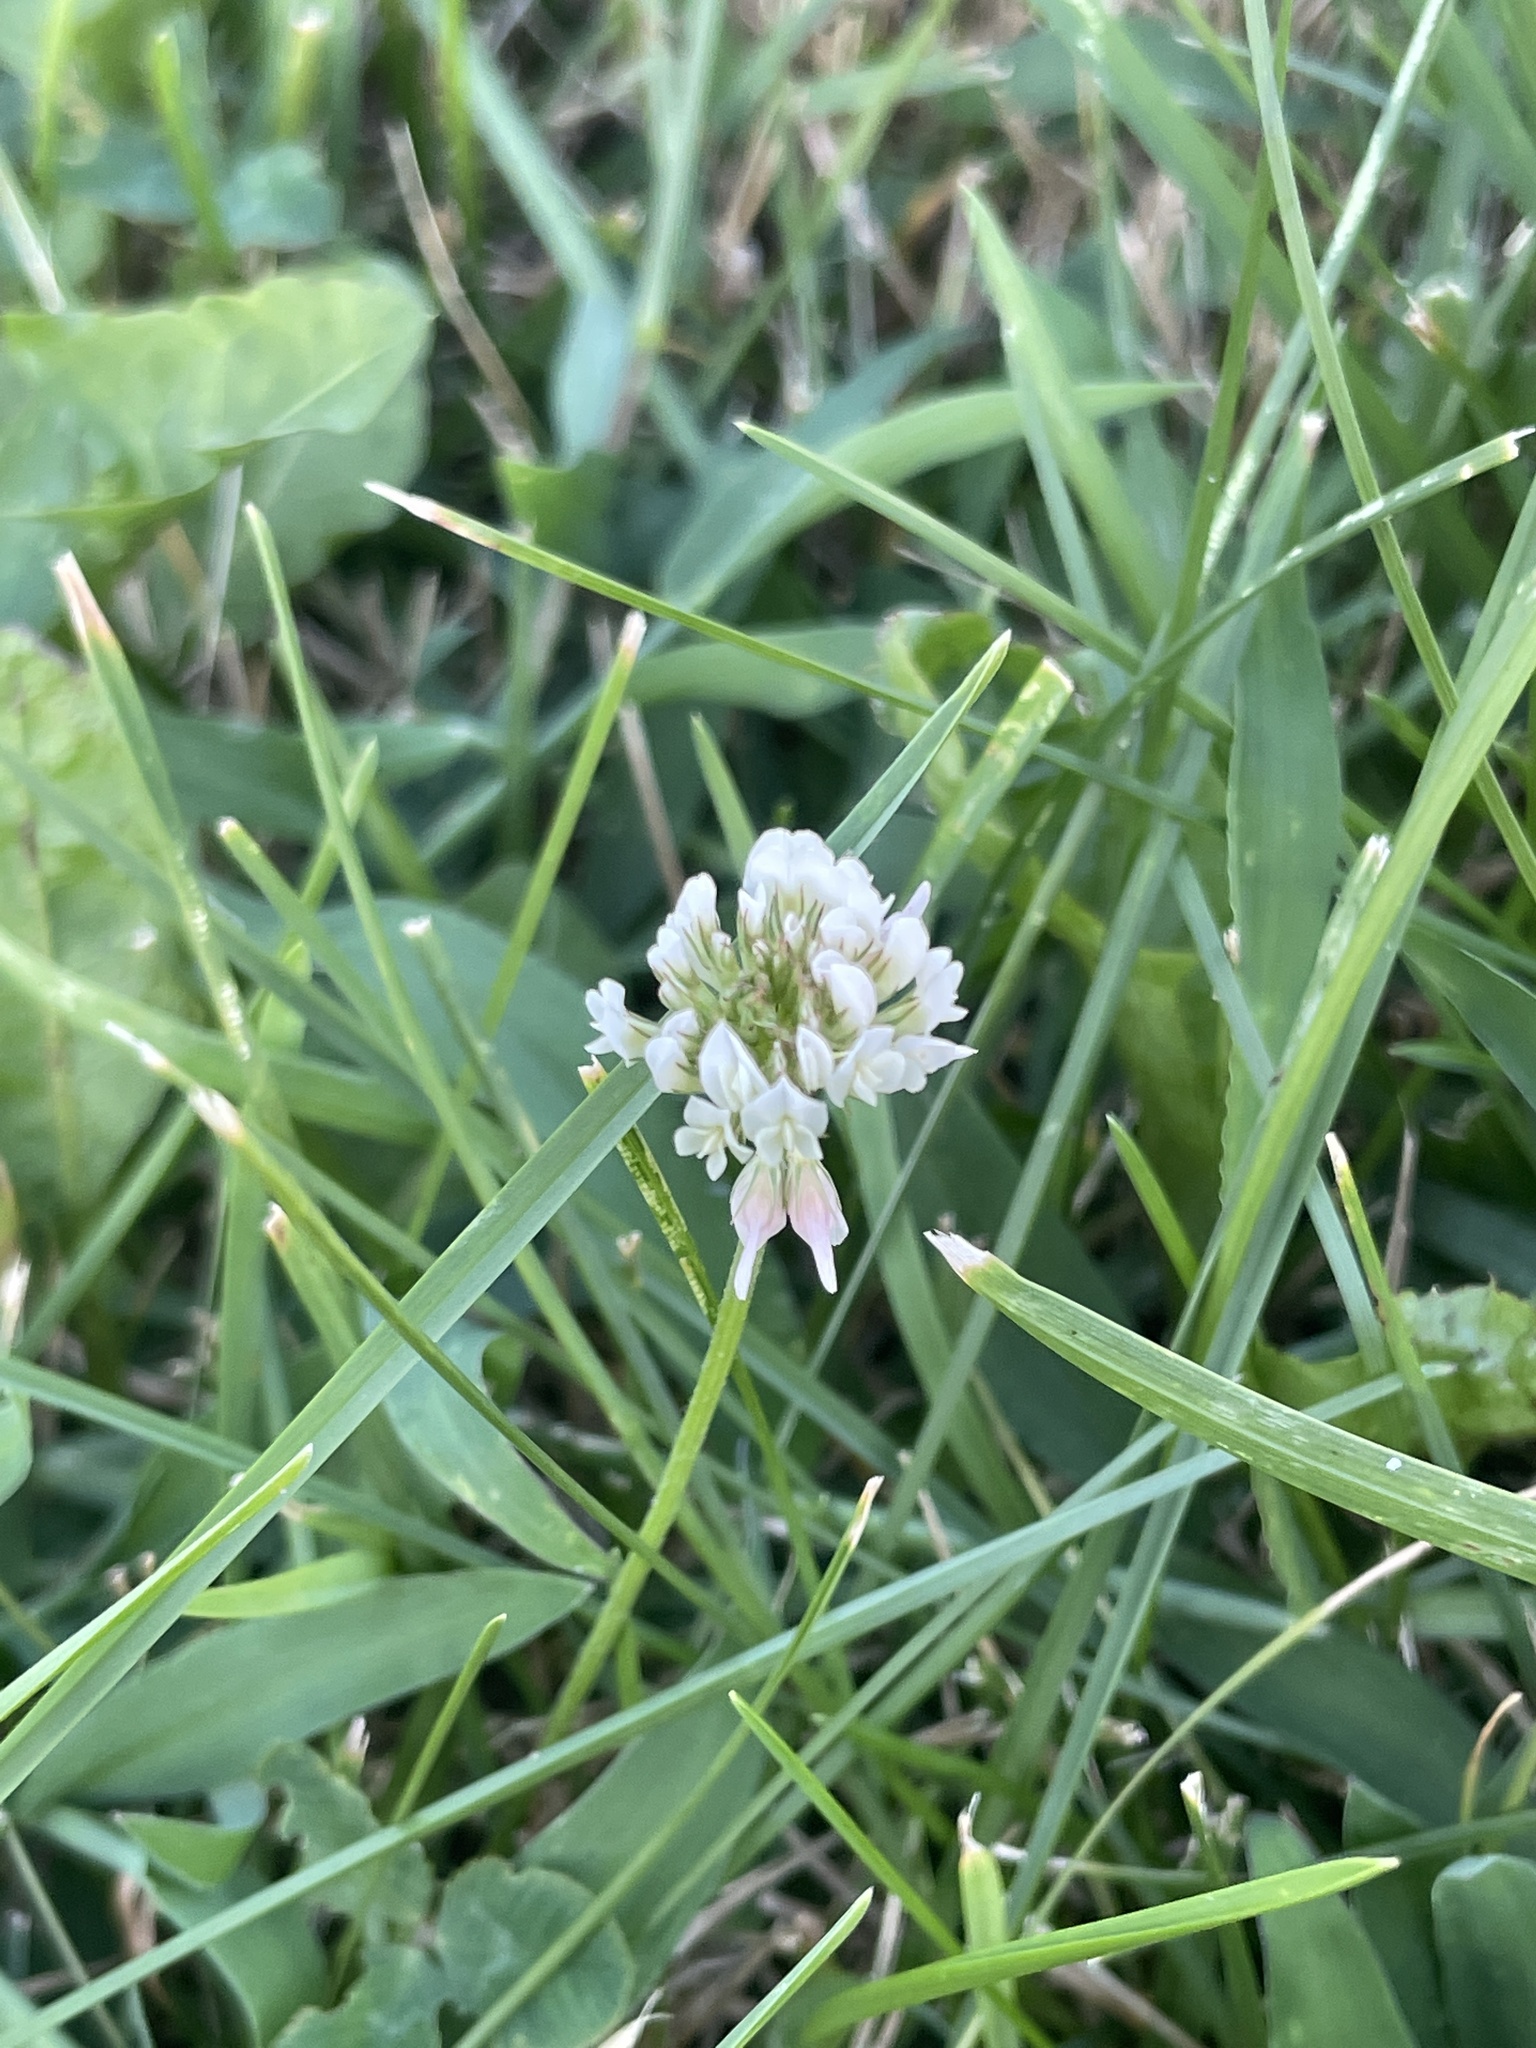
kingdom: Plantae
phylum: Tracheophyta
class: Magnoliopsida
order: Fabales
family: Fabaceae
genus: Trifolium
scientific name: Trifolium repens
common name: White clover
